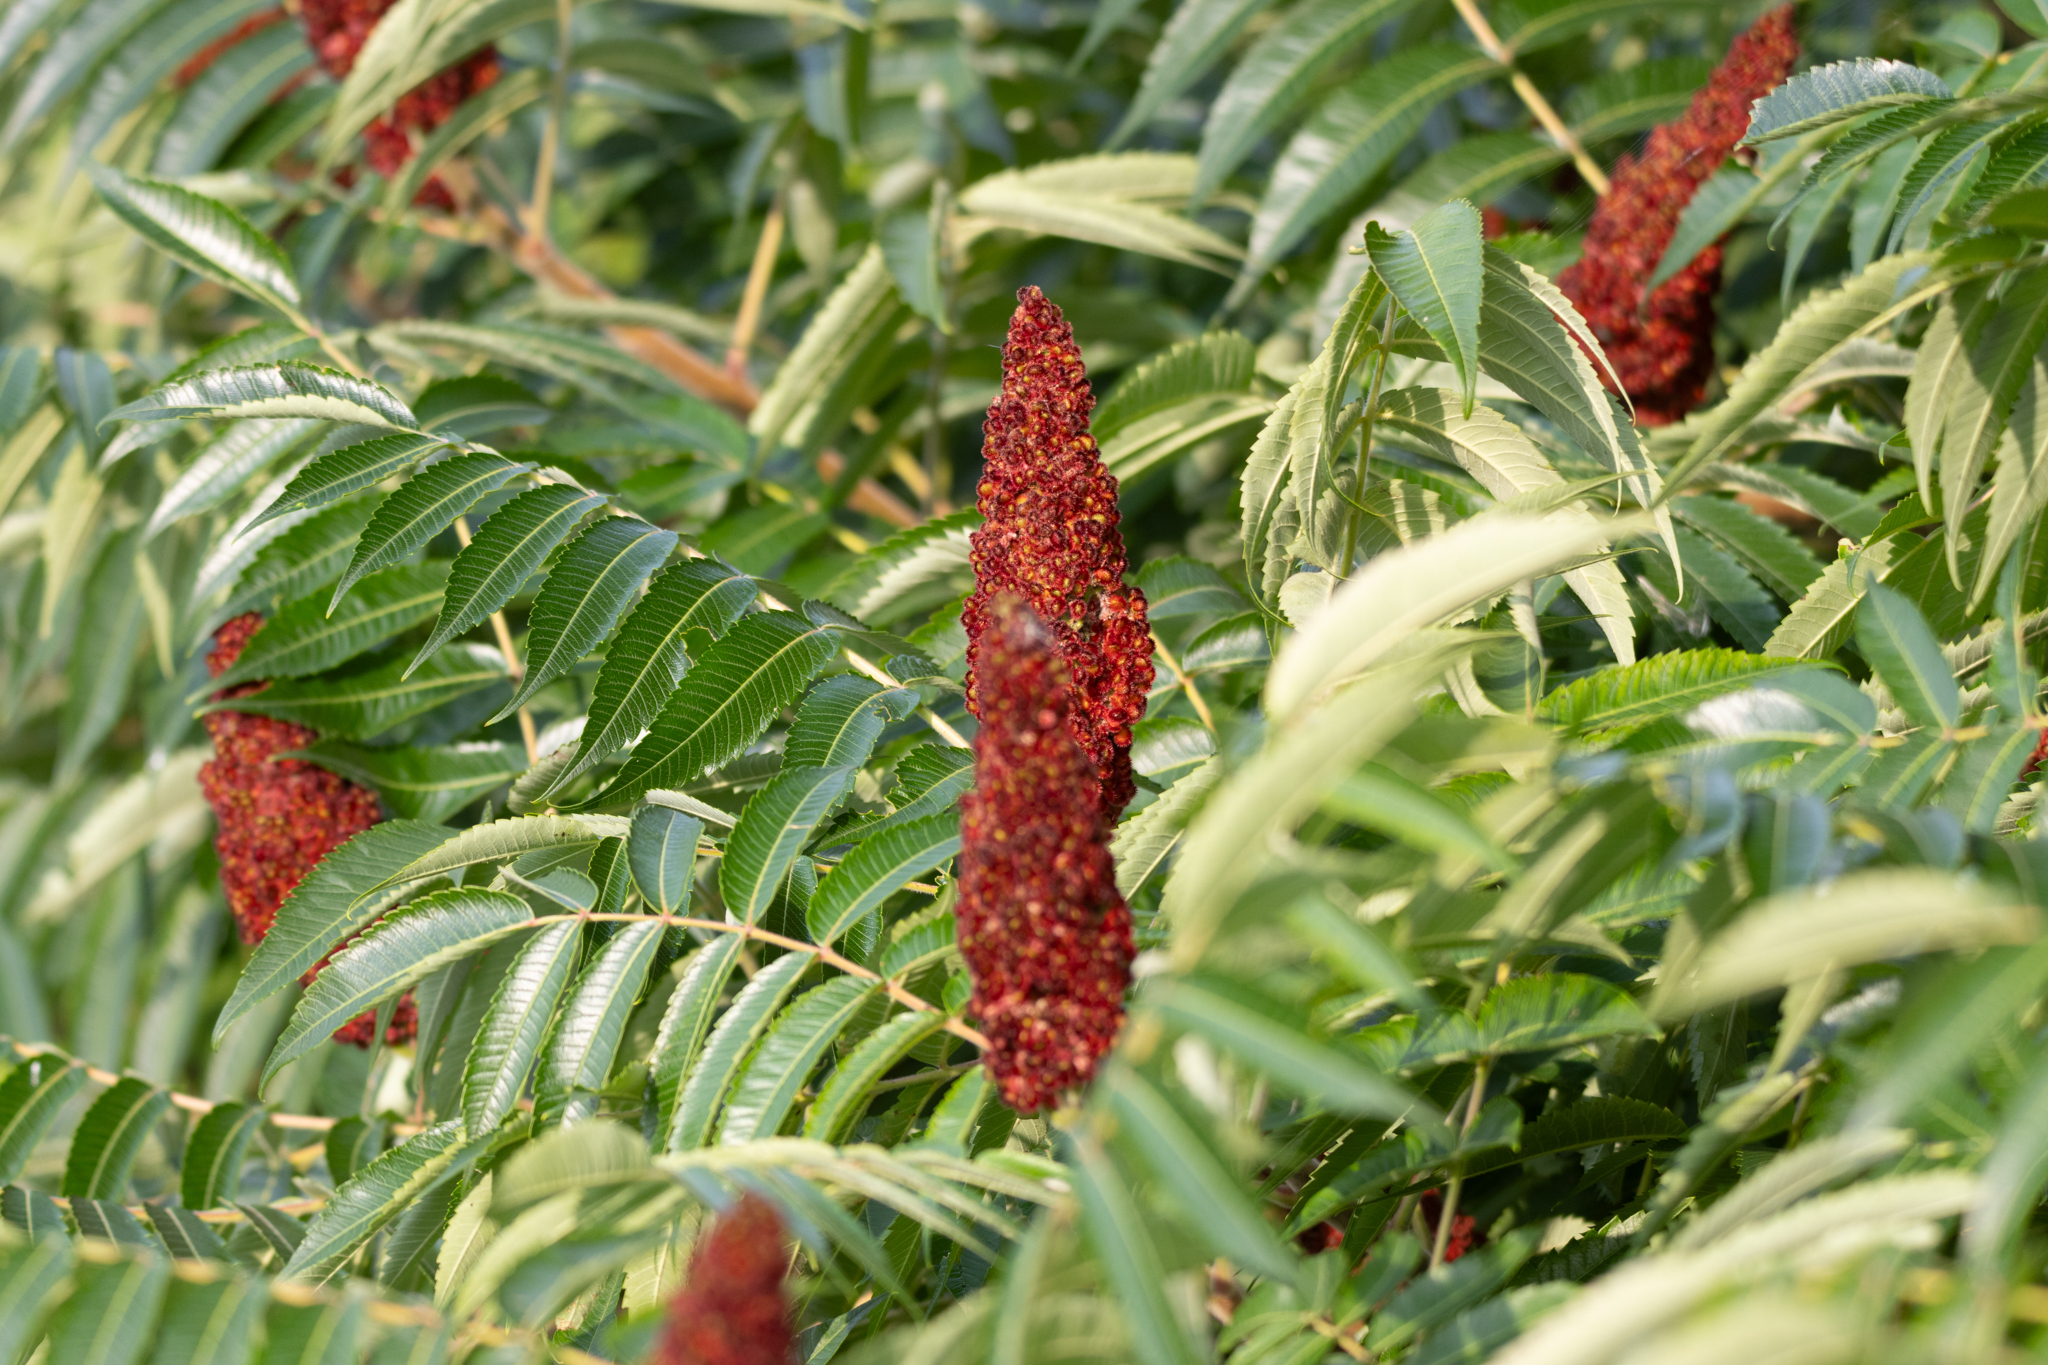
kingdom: Plantae
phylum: Tracheophyta
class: Magnoliopsida
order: Sapindales
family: Anacardiaceae
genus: Rhus
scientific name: Rhus typhina
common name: Staghorn sumac
